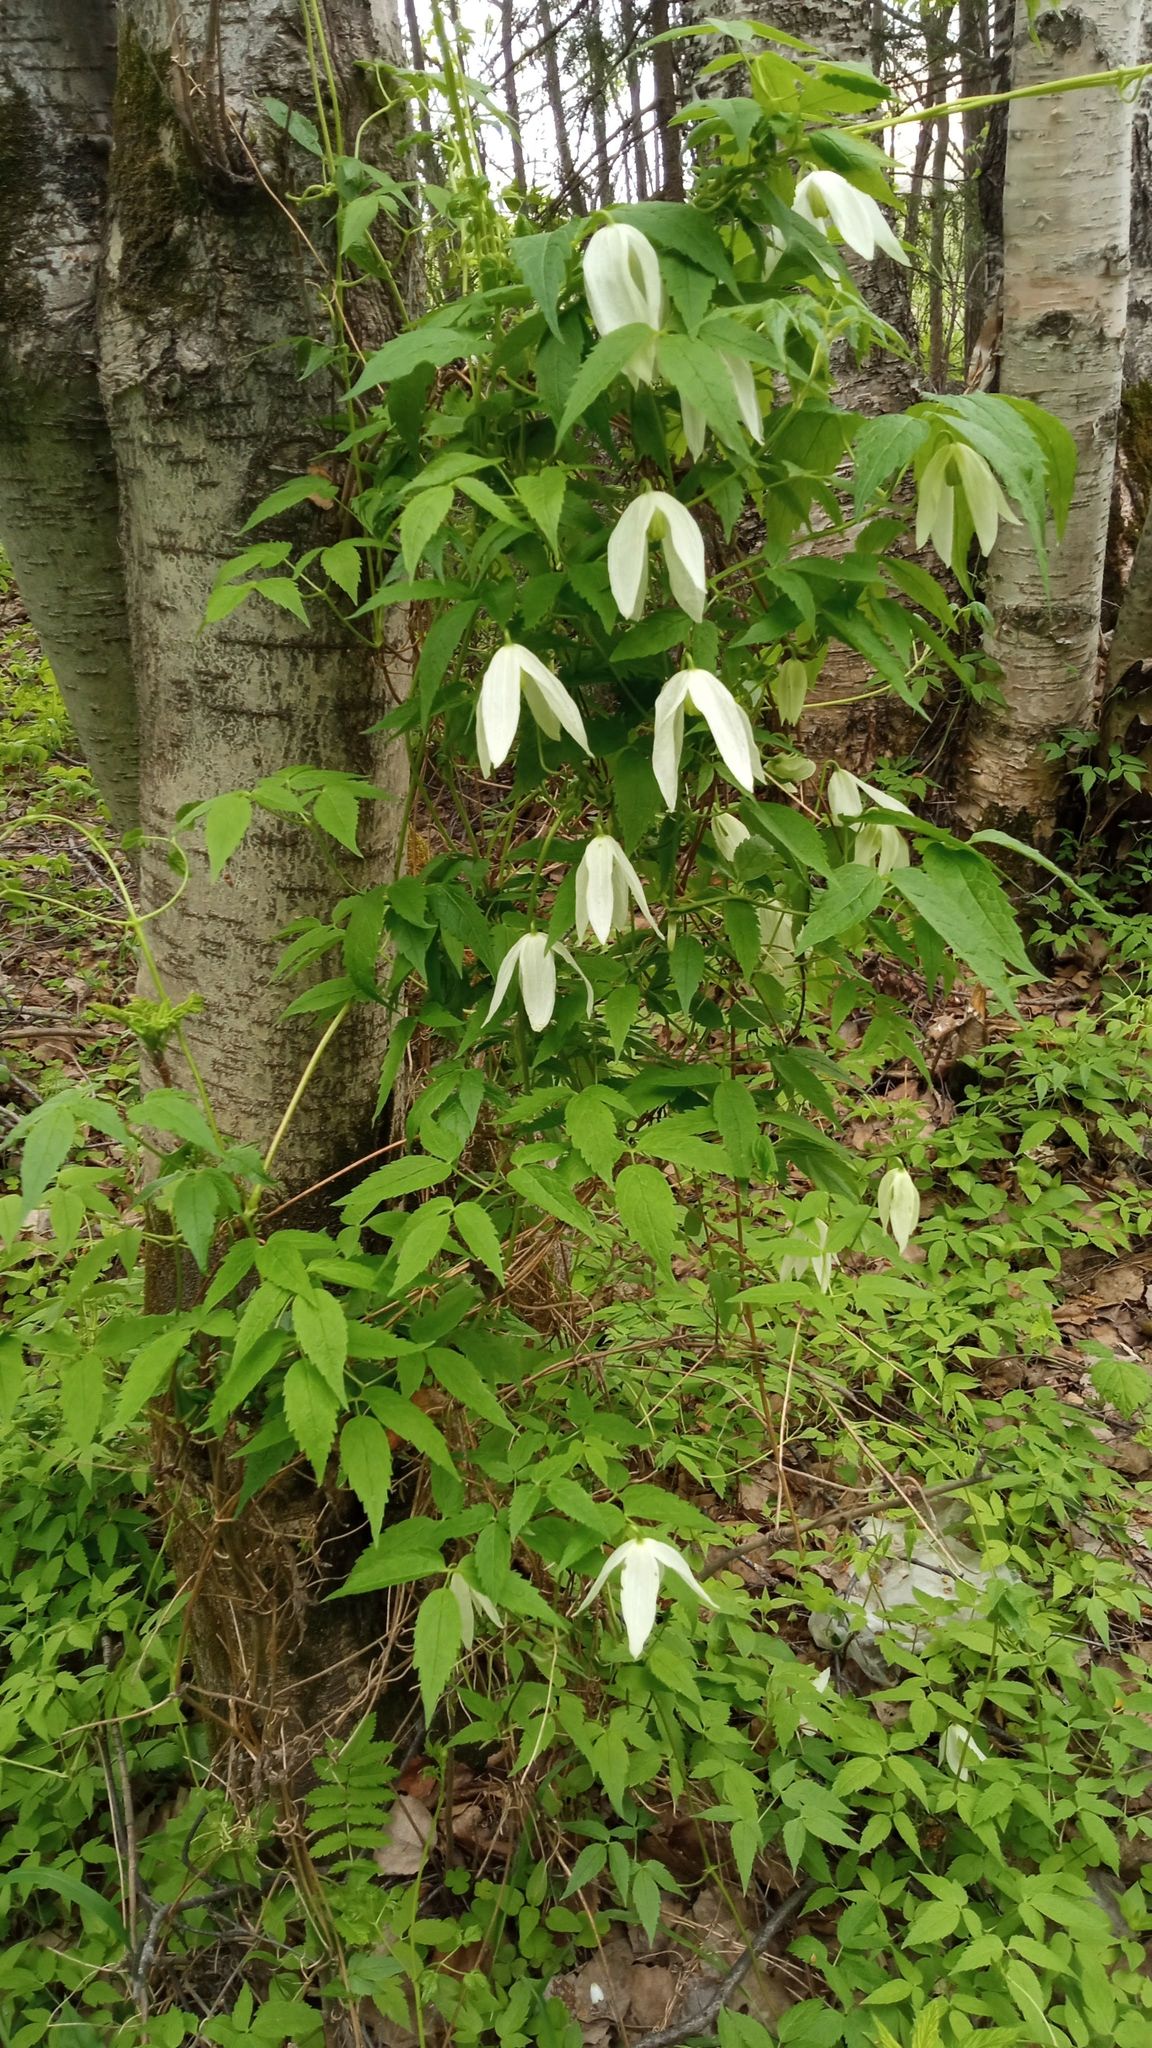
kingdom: Plantae
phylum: Tracheophyta
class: Magnoliopsida
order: Ranunculales
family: Ranunculaceae
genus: Clematis
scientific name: Clematis sibirica
